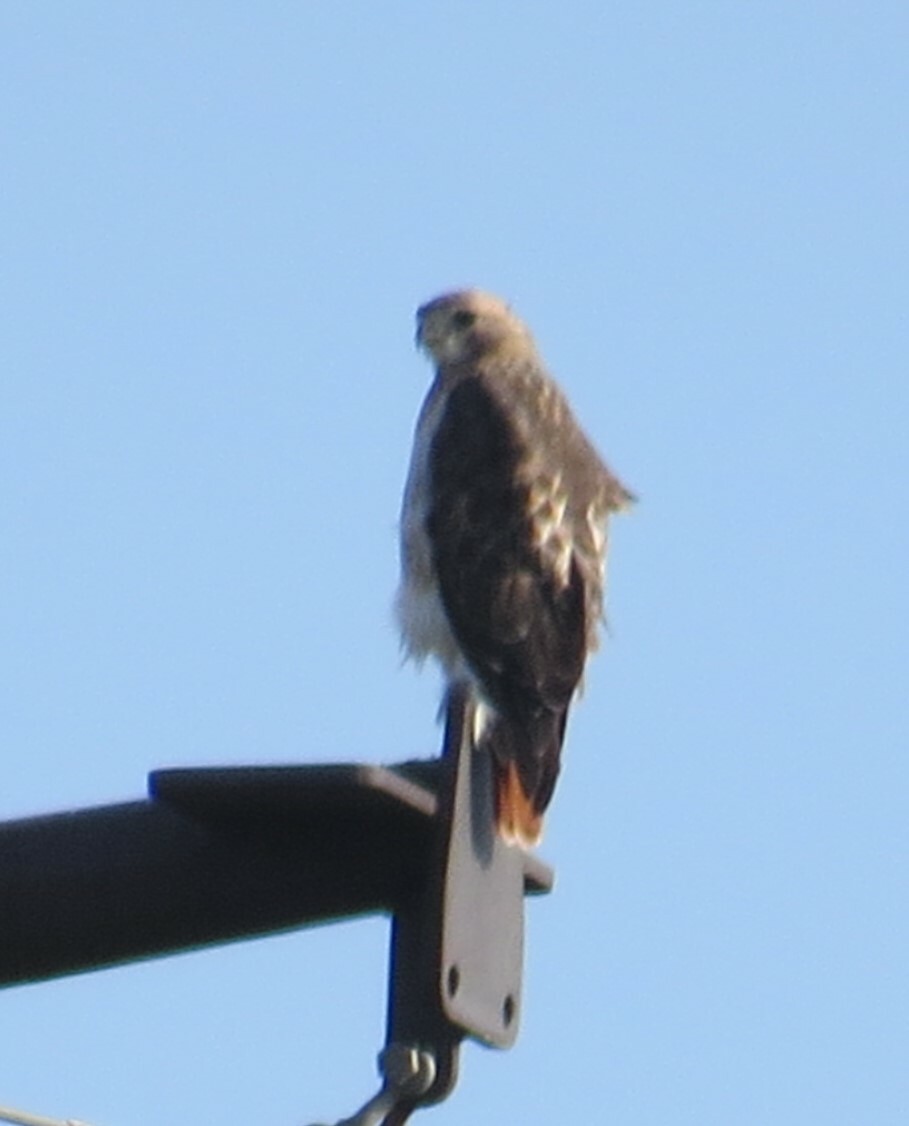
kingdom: Animalia
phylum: Chordata
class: Aves
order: Accipitriformes
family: Accipitridae
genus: Buteo
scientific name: Buteo jamaicensis
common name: Red-tailed hawk
